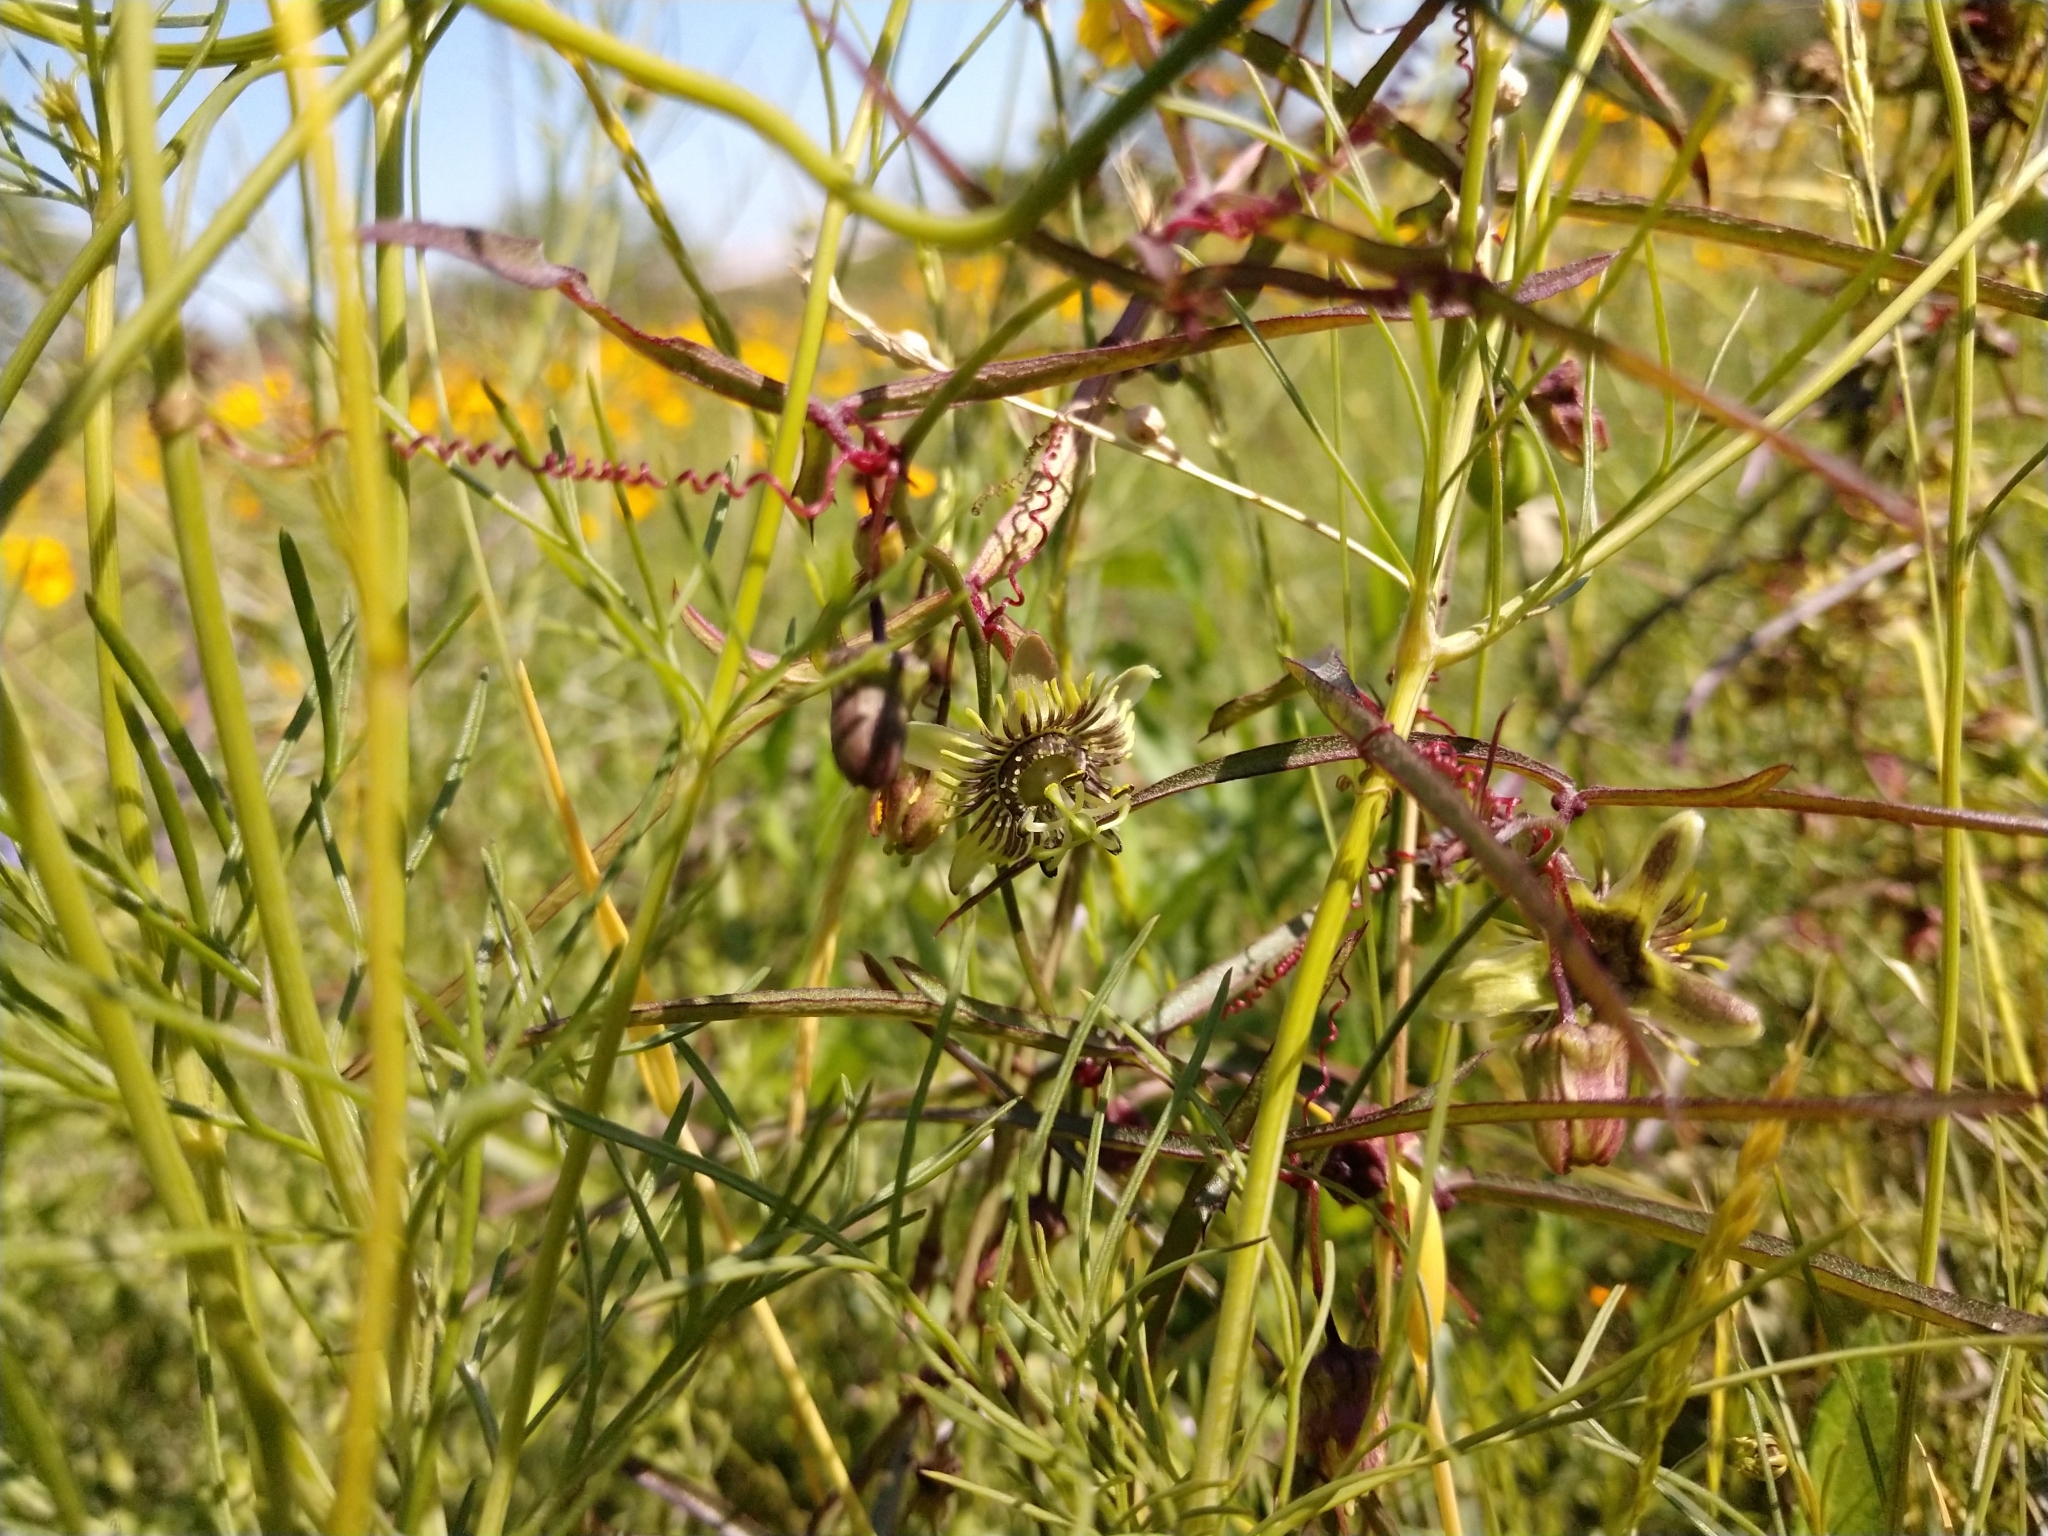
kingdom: Plantae
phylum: Tracheophyta
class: Magnoliopsida
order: Malpighiales
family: Passifloraceae
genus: Passiflora
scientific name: Passiflora tenuiloba
